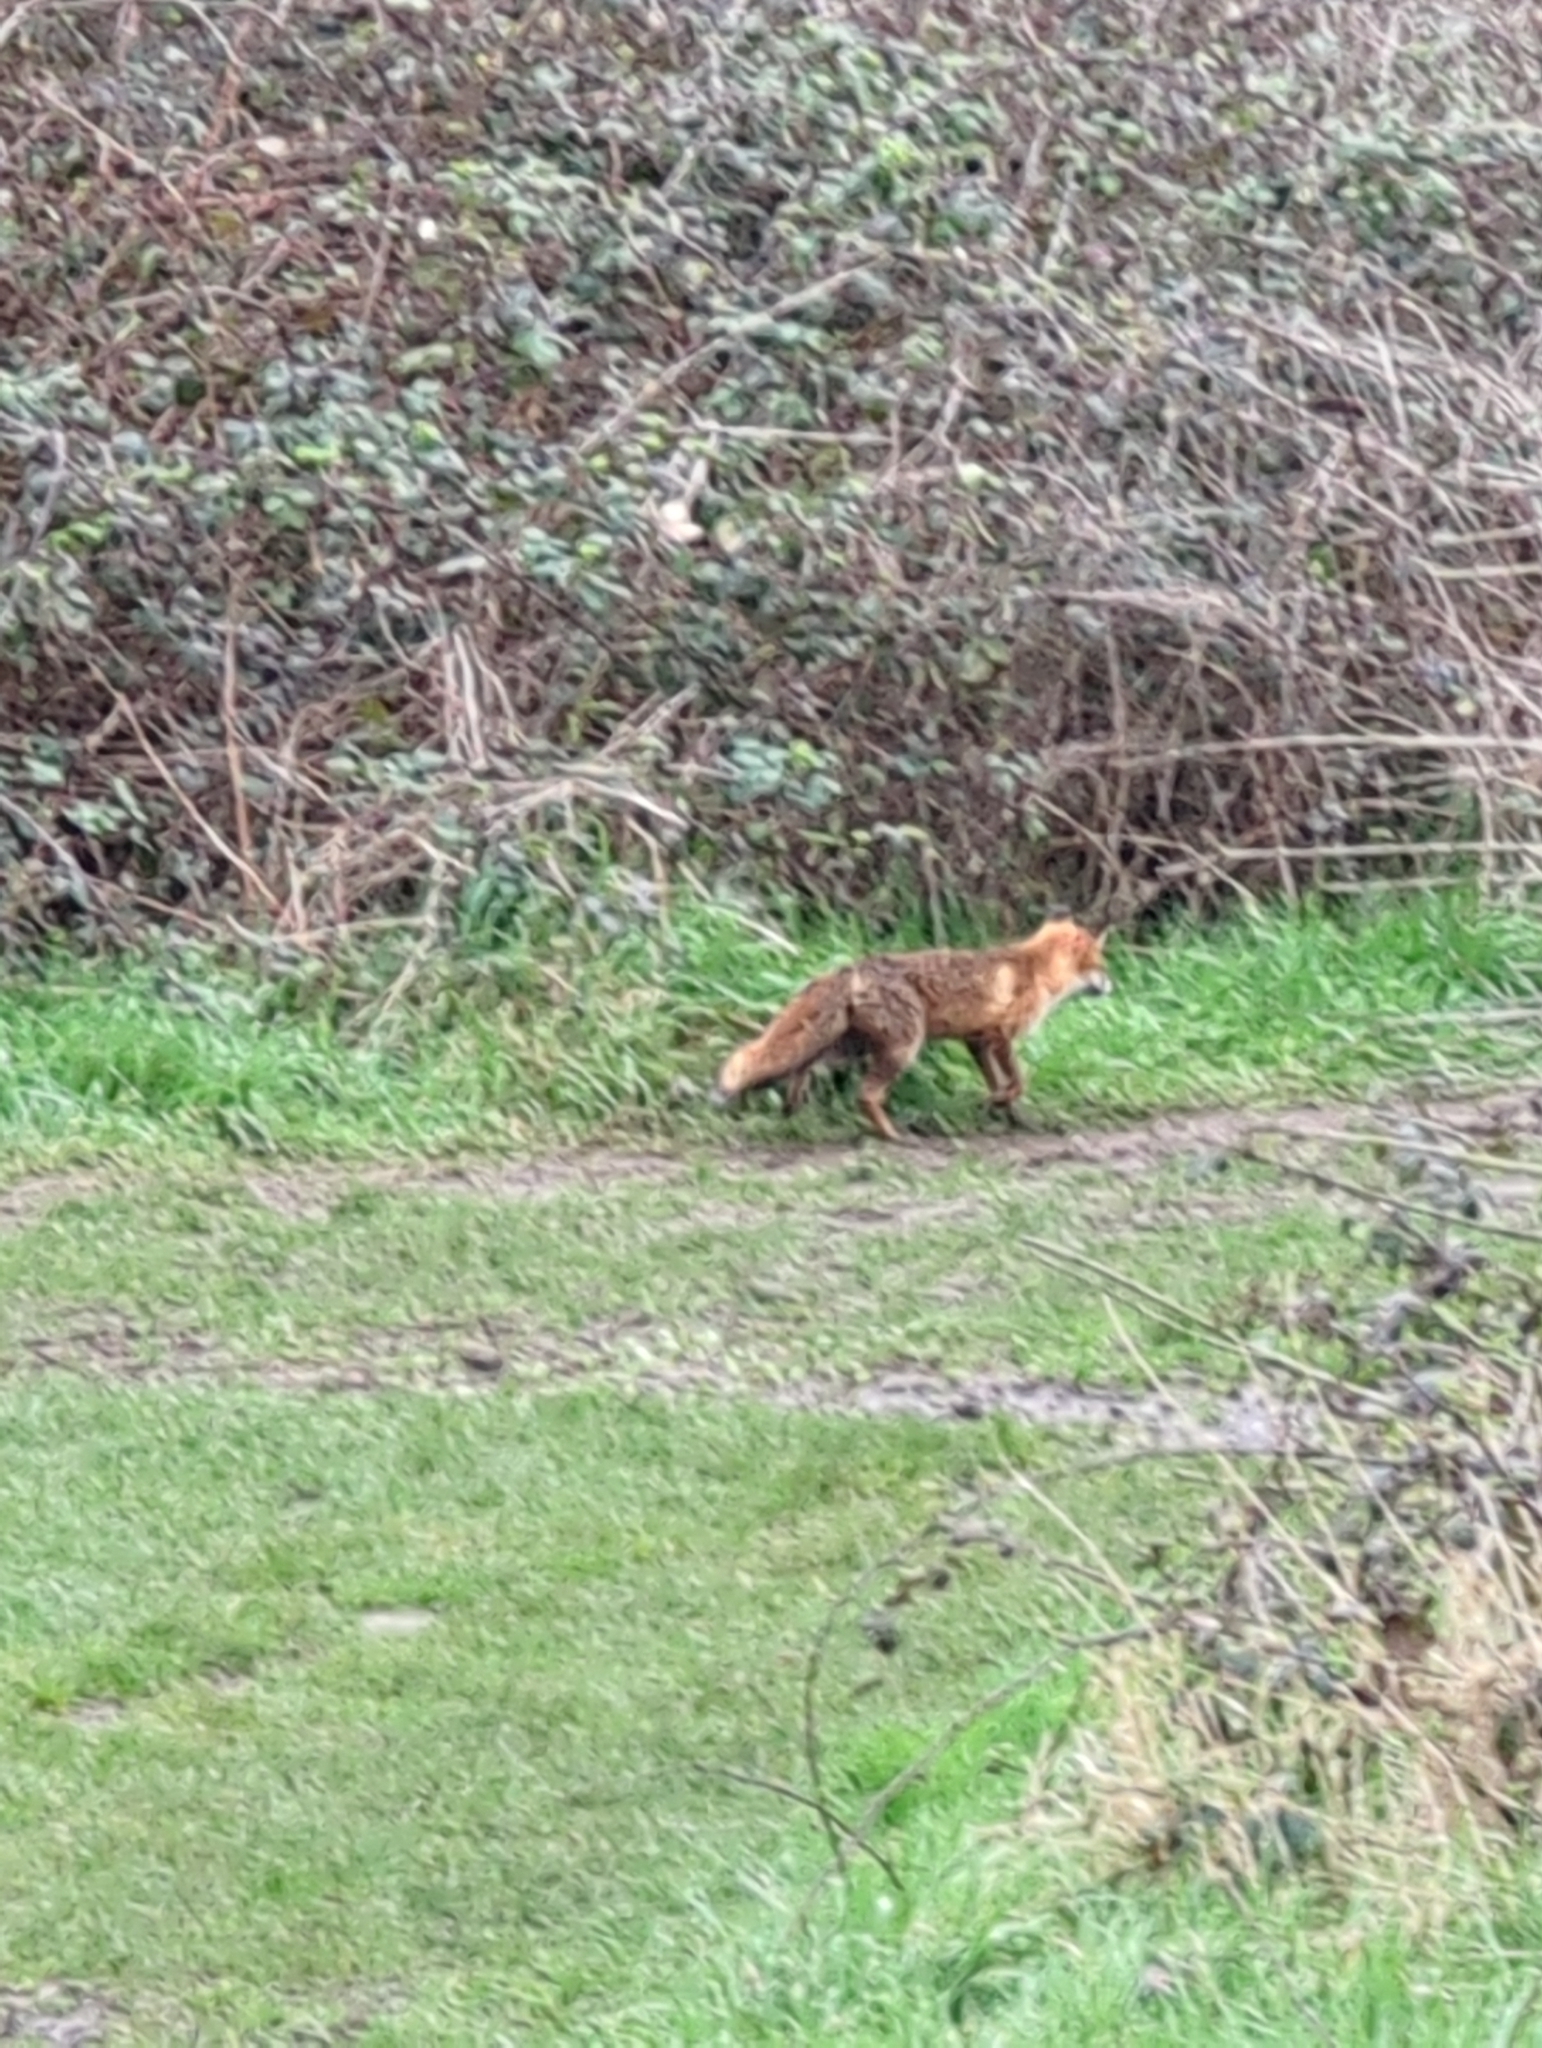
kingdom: Animalia
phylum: Chordata
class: Mammalia
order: Carnivora
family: Canidae
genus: Vulpes
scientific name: Vulpes vulpes
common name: Red fox
